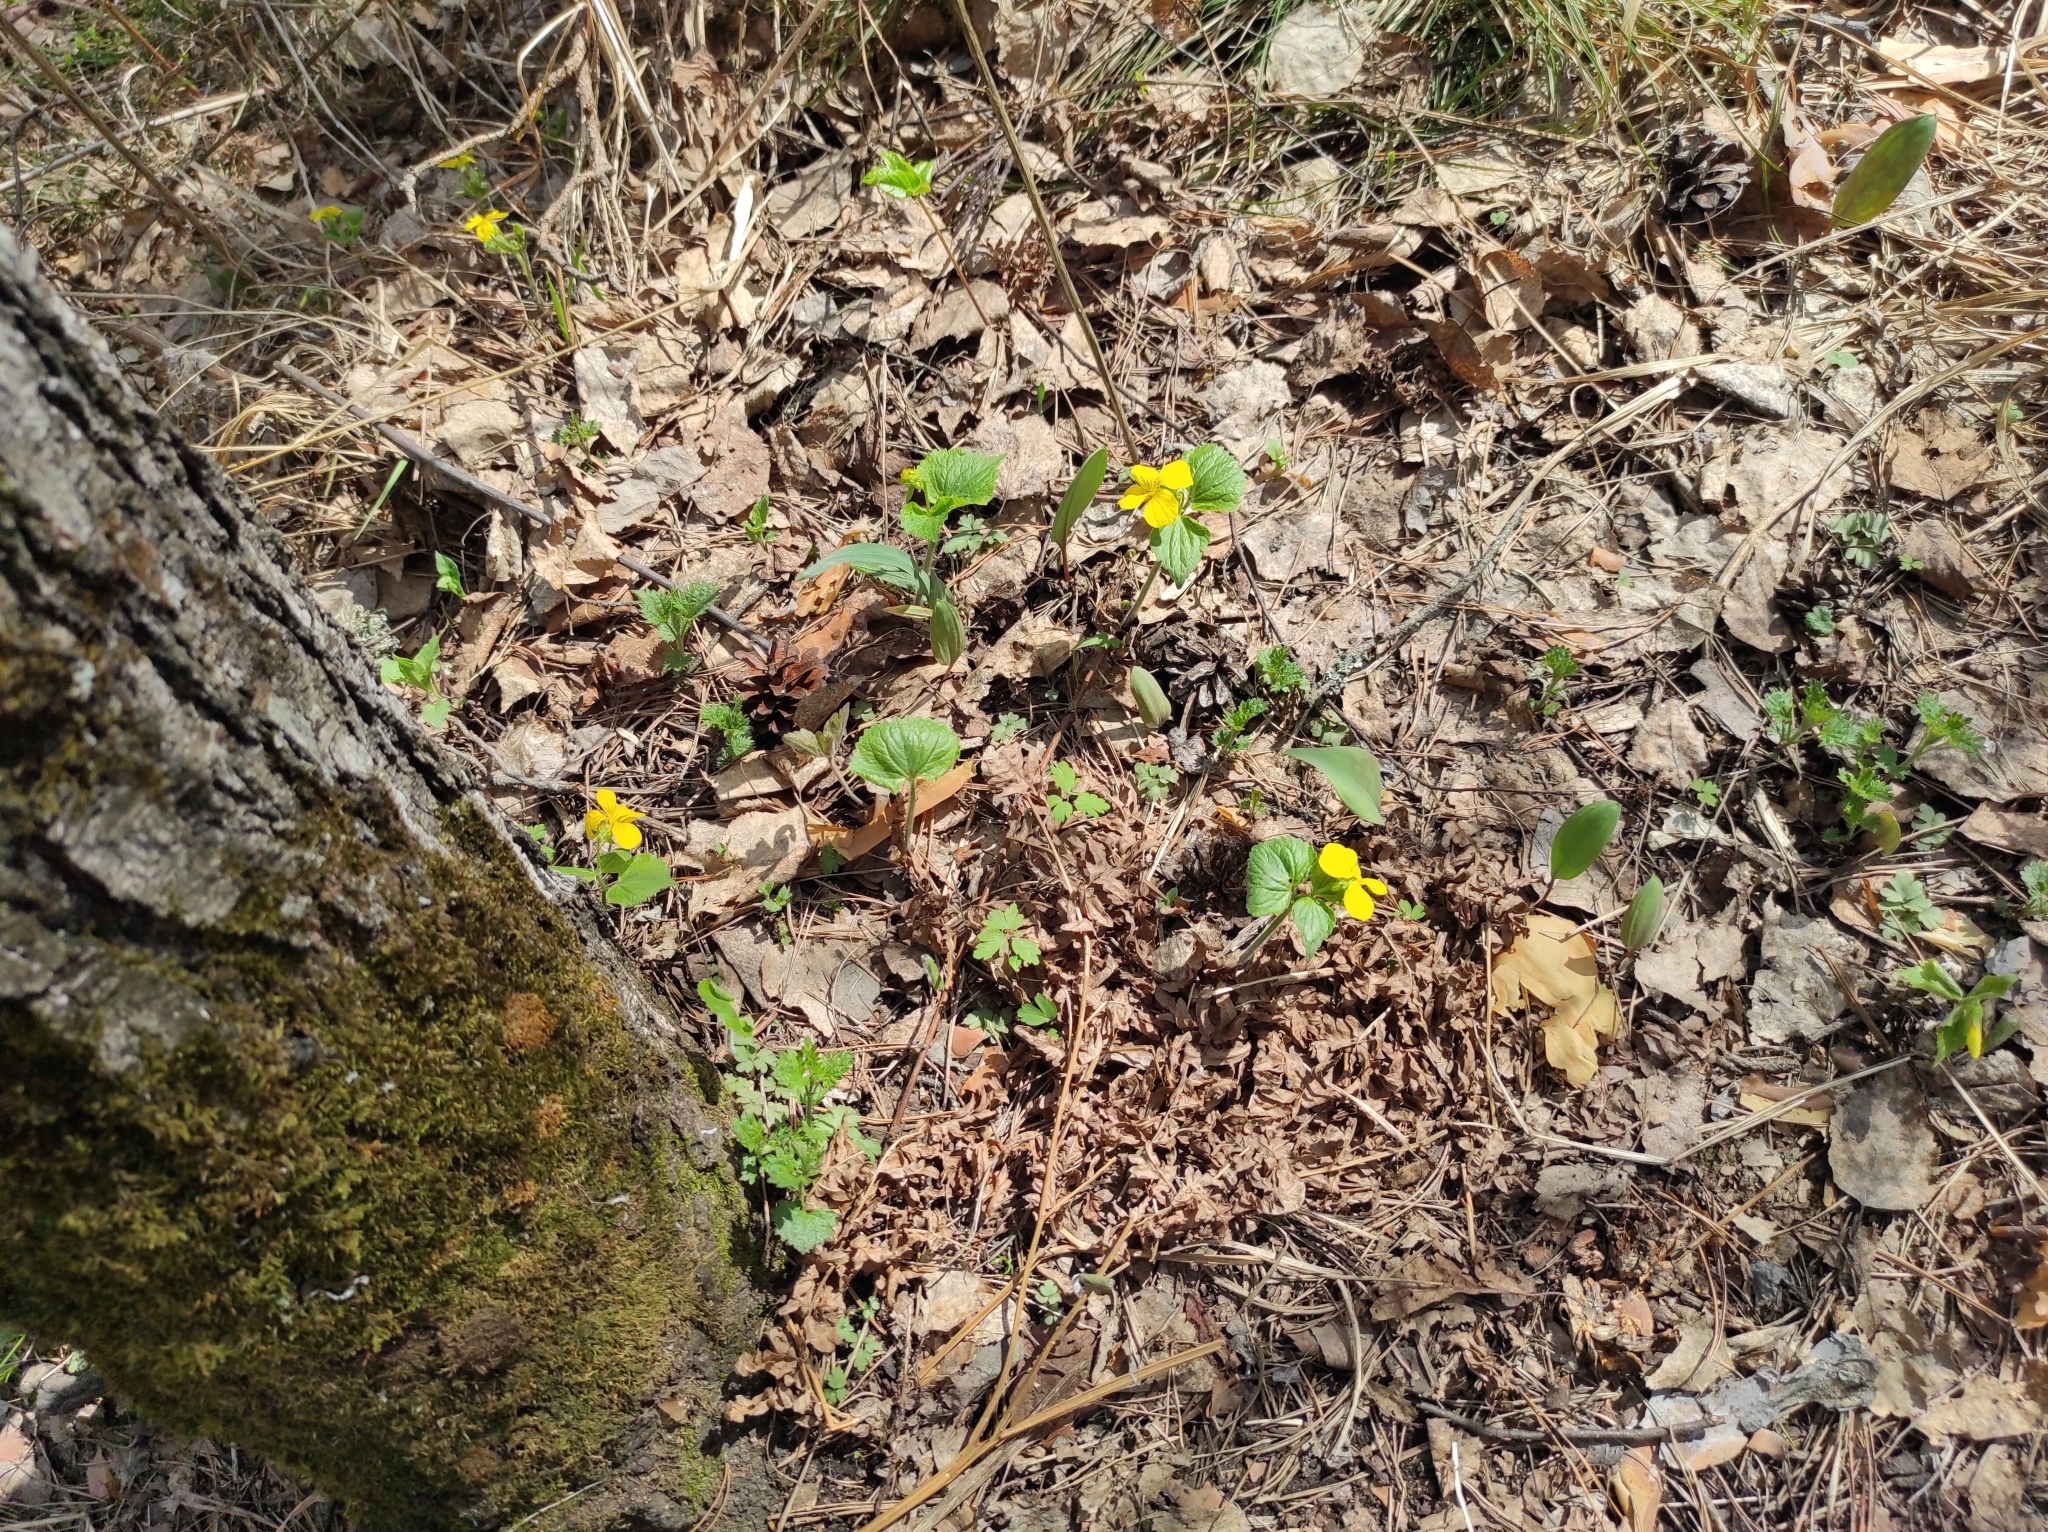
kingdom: Plantae
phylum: Tracheophyta
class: Magnoliopsida
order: Malpighiales
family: Violaceae
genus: Viola
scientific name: Viola uniflora
